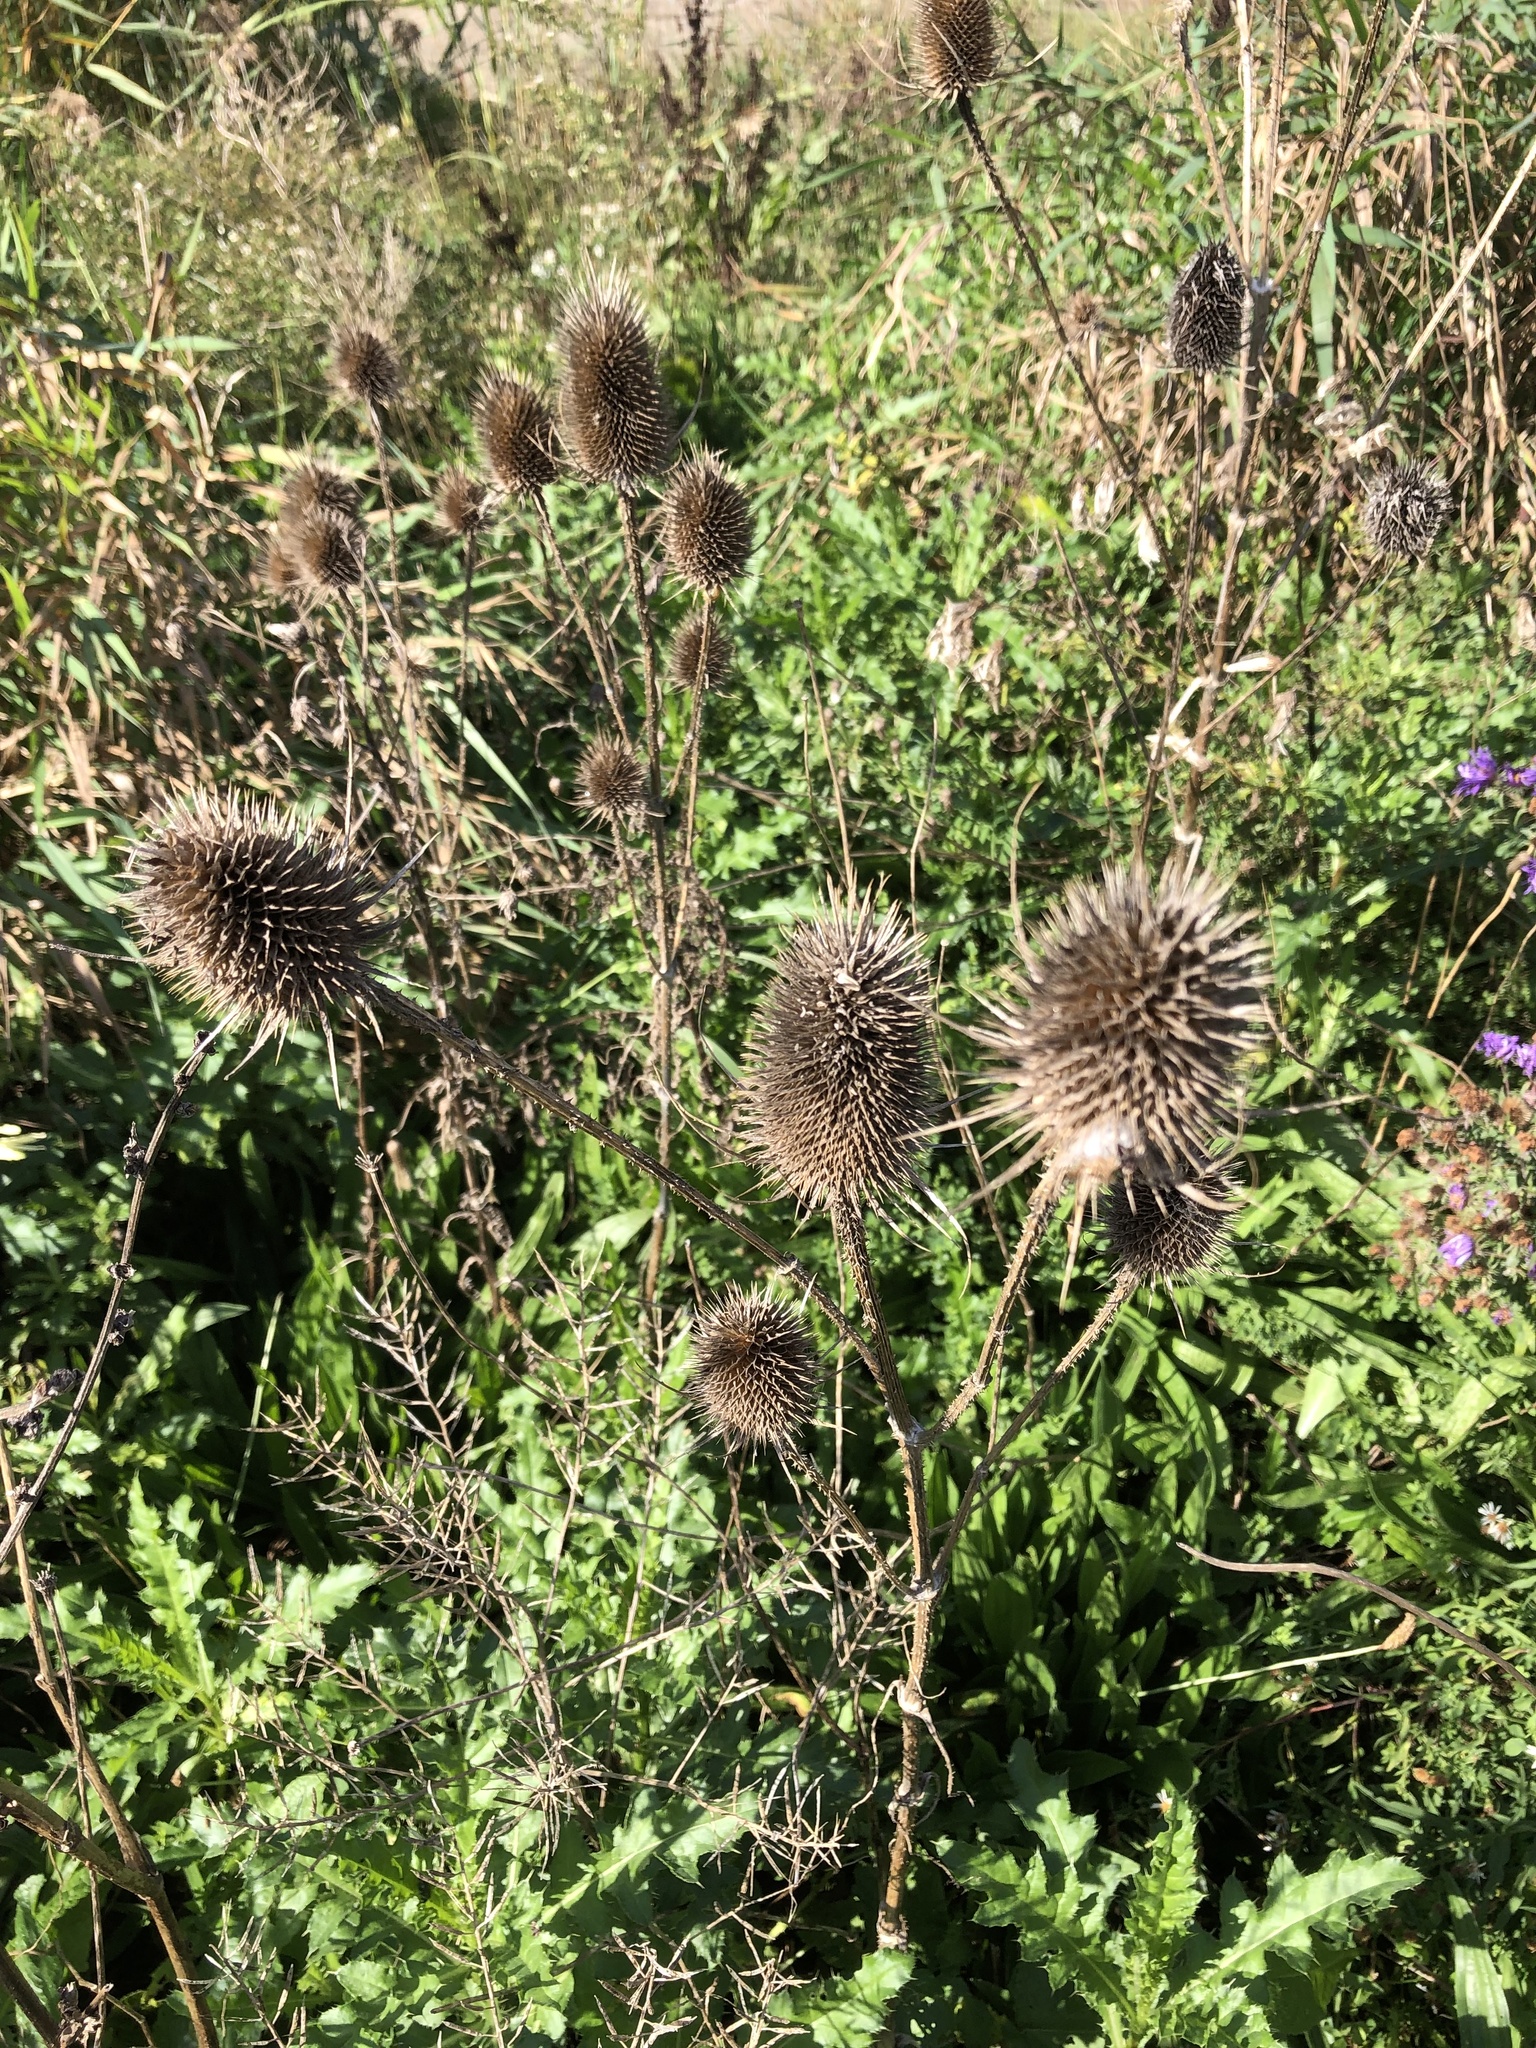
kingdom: Plantae
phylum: Tracheophyta
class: Magnoliopsida
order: Dipsacales
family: Caprifoliaceae
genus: Dipsacus
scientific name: Dipsacus fullonum
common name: Teasel
